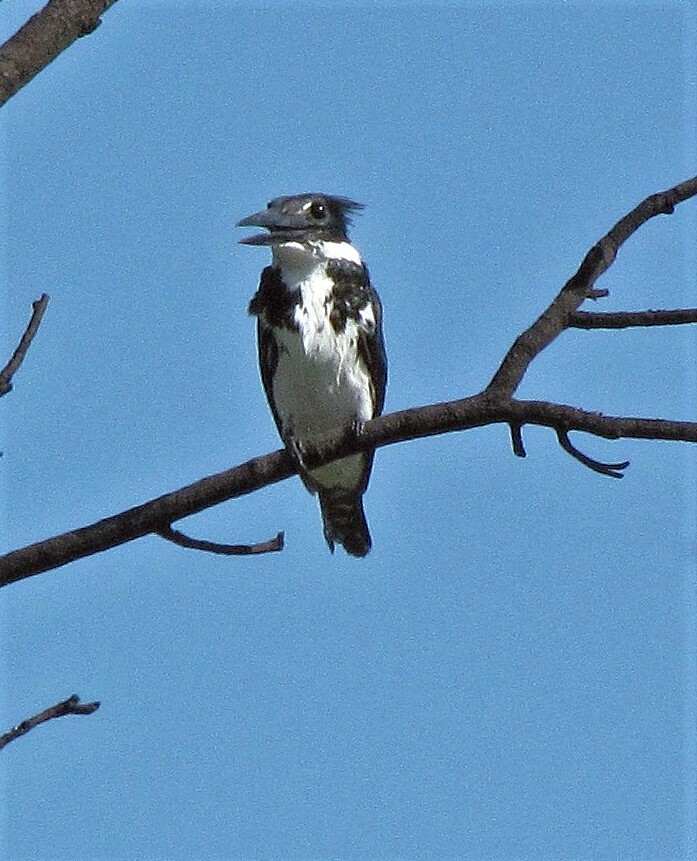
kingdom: Animalia
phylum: Chordata
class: Aves
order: Coraciiformes
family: Alcedinidae
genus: Chloroceryle
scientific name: Chloroceryle amazona
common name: Amazon kingfisher
